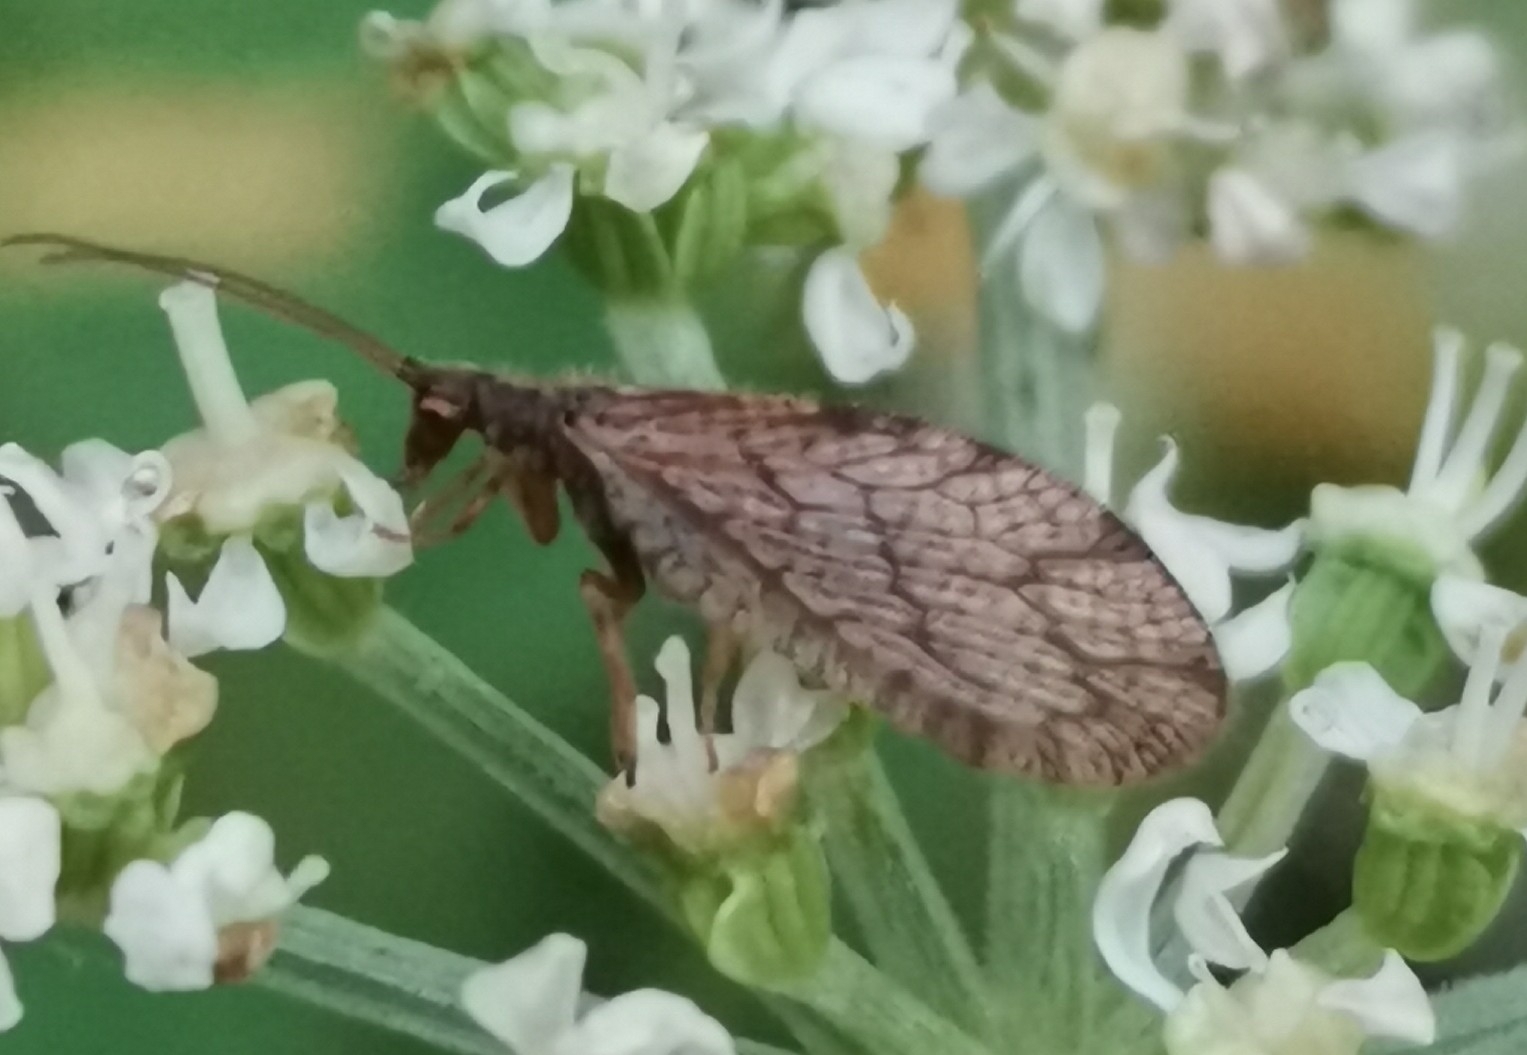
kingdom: Animalia
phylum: Arthropoda
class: Insecta
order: Neuroptera
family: Hemerobiidae
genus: Micromus
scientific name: Micromus angulatus
